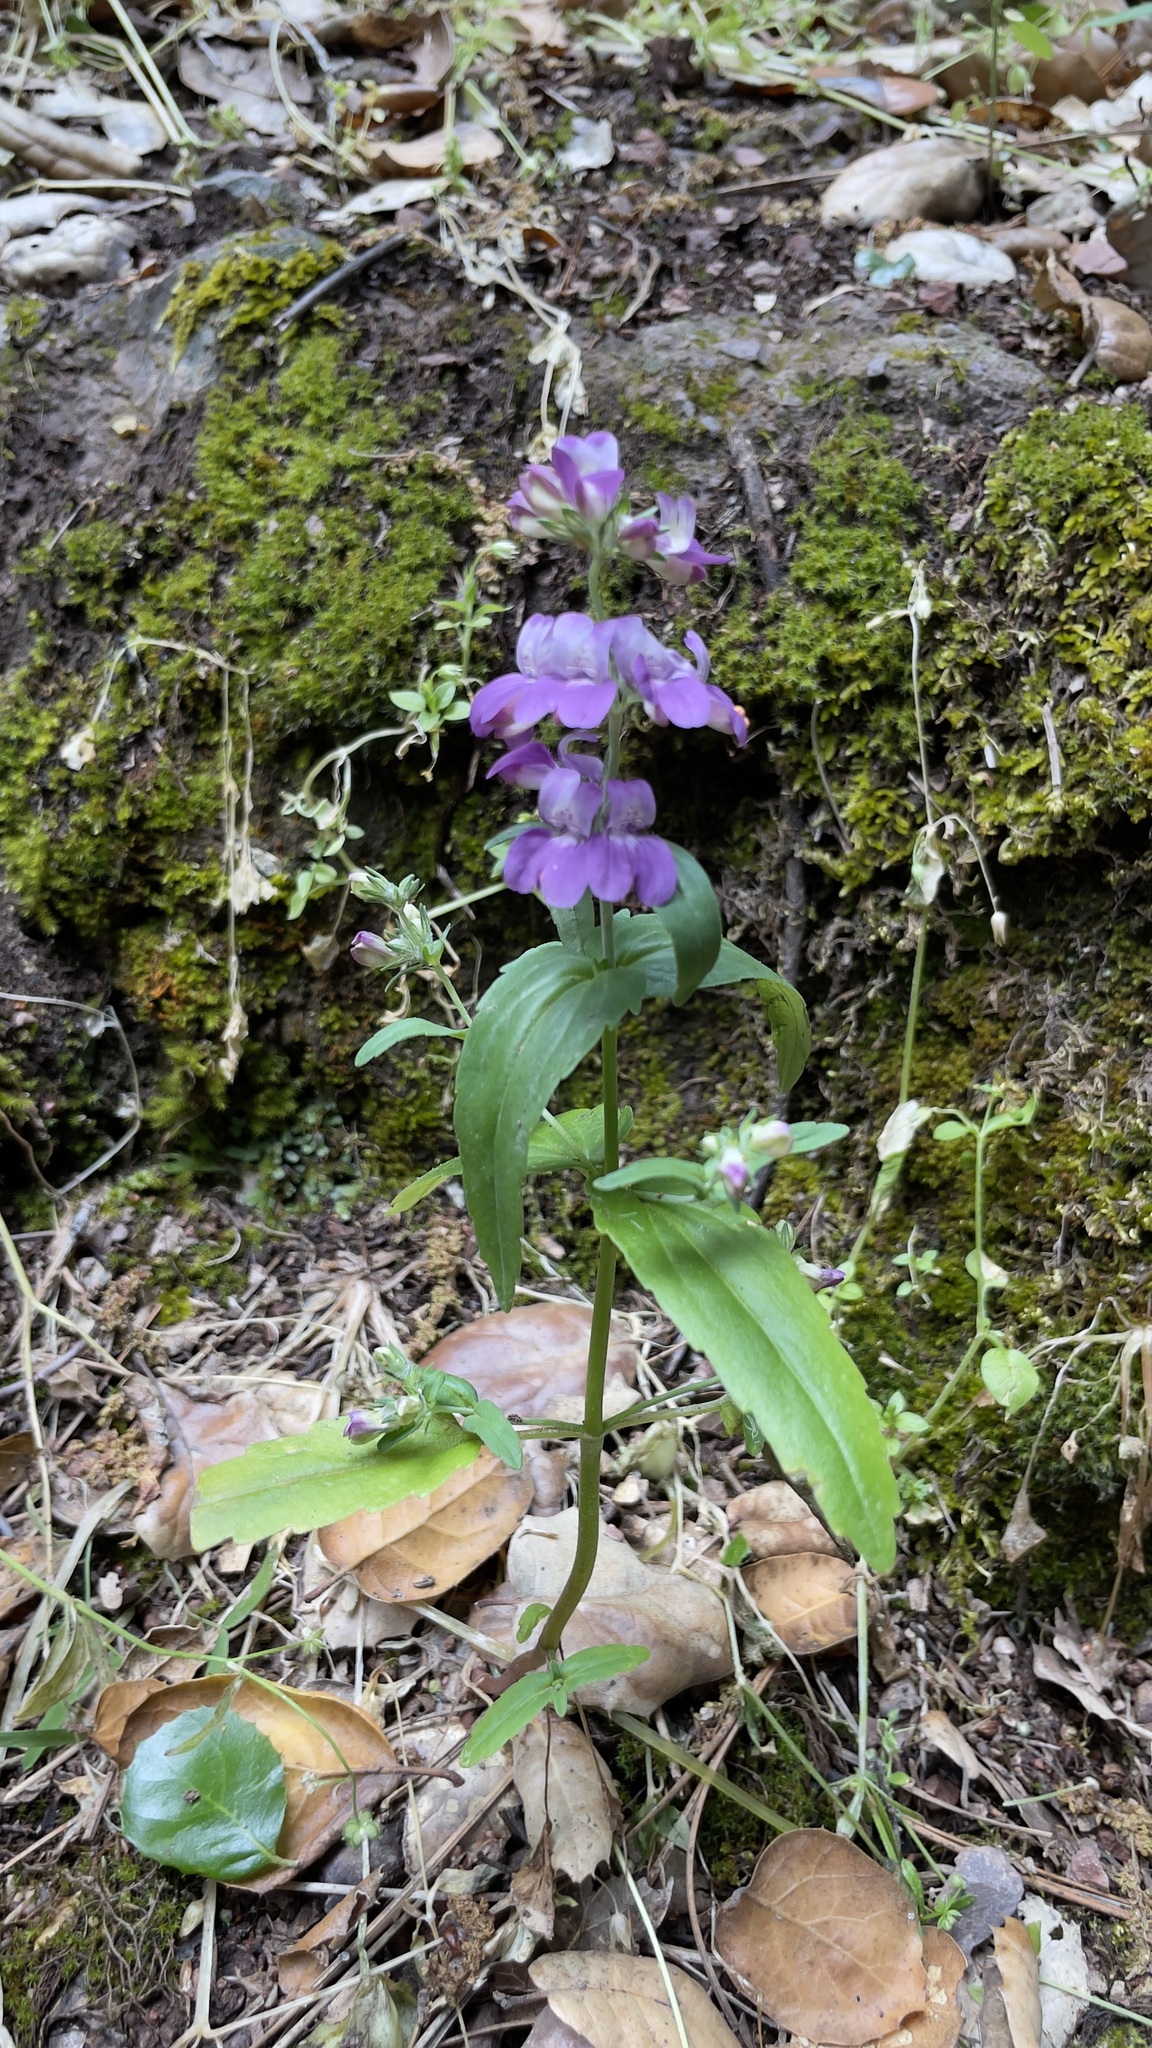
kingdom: Plantae
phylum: Tracheophyta
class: Magnoliopsida
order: Lamiales
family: Plantaginaceae
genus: Collinsia
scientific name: Collinsia heterophylla
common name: Chinese-houses
